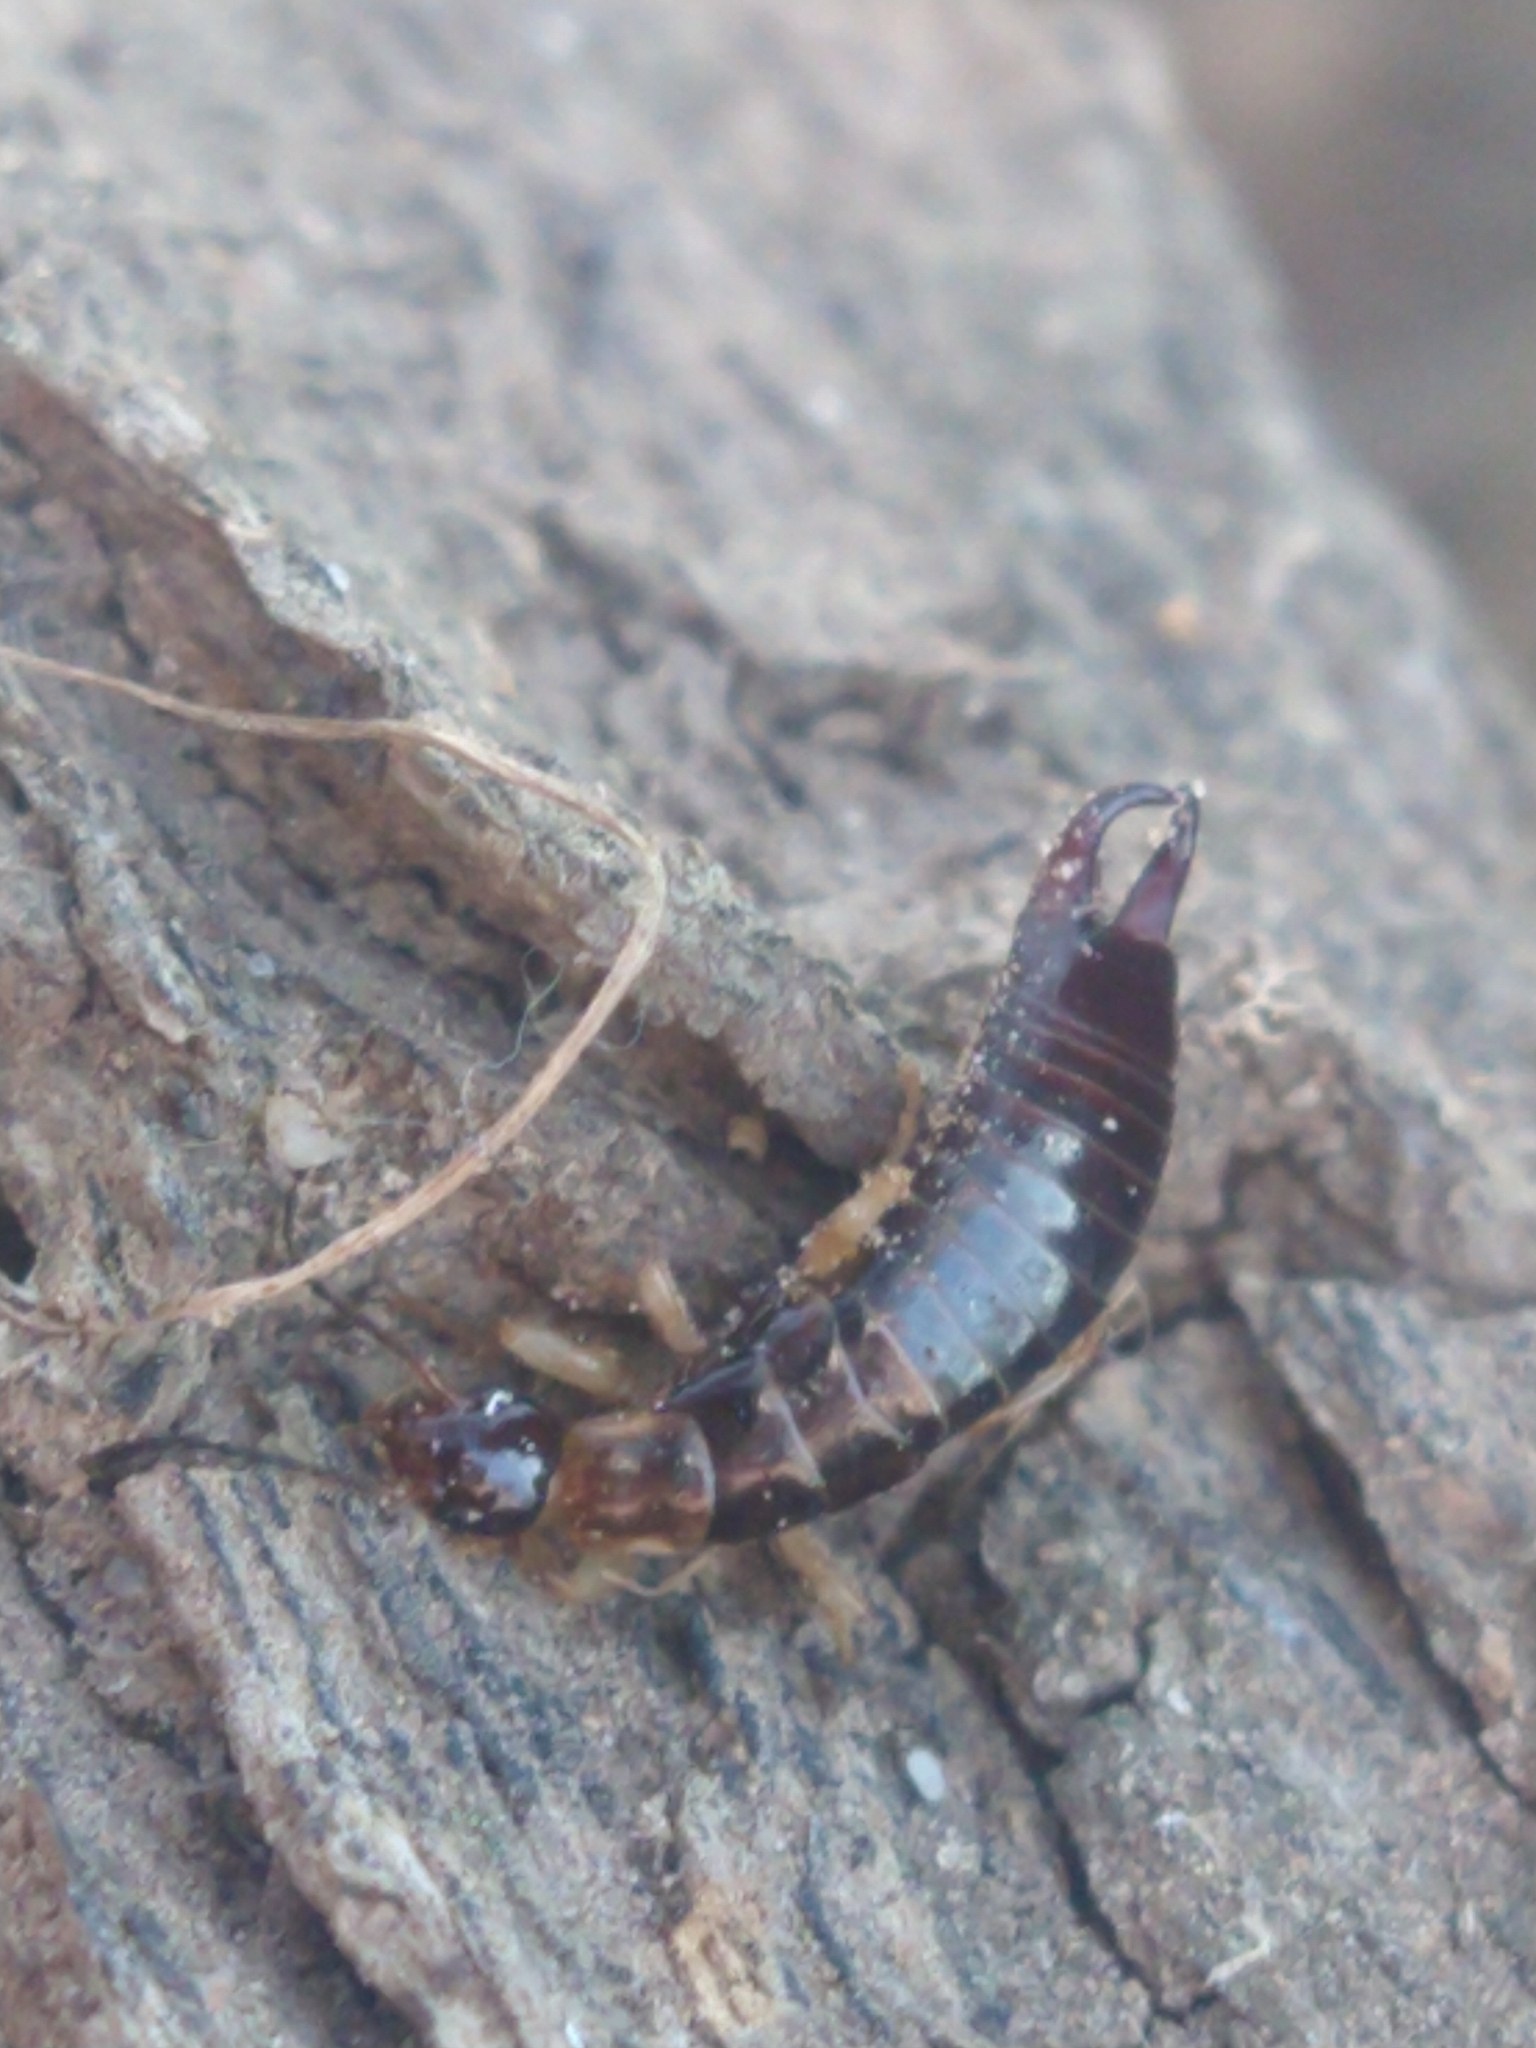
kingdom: Animalia
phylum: Arthropoda
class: Insecta
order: Dermaptera
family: Anisolabididae
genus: Euborellia
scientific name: Euborellia annulipes
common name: Ringlegged earwig
